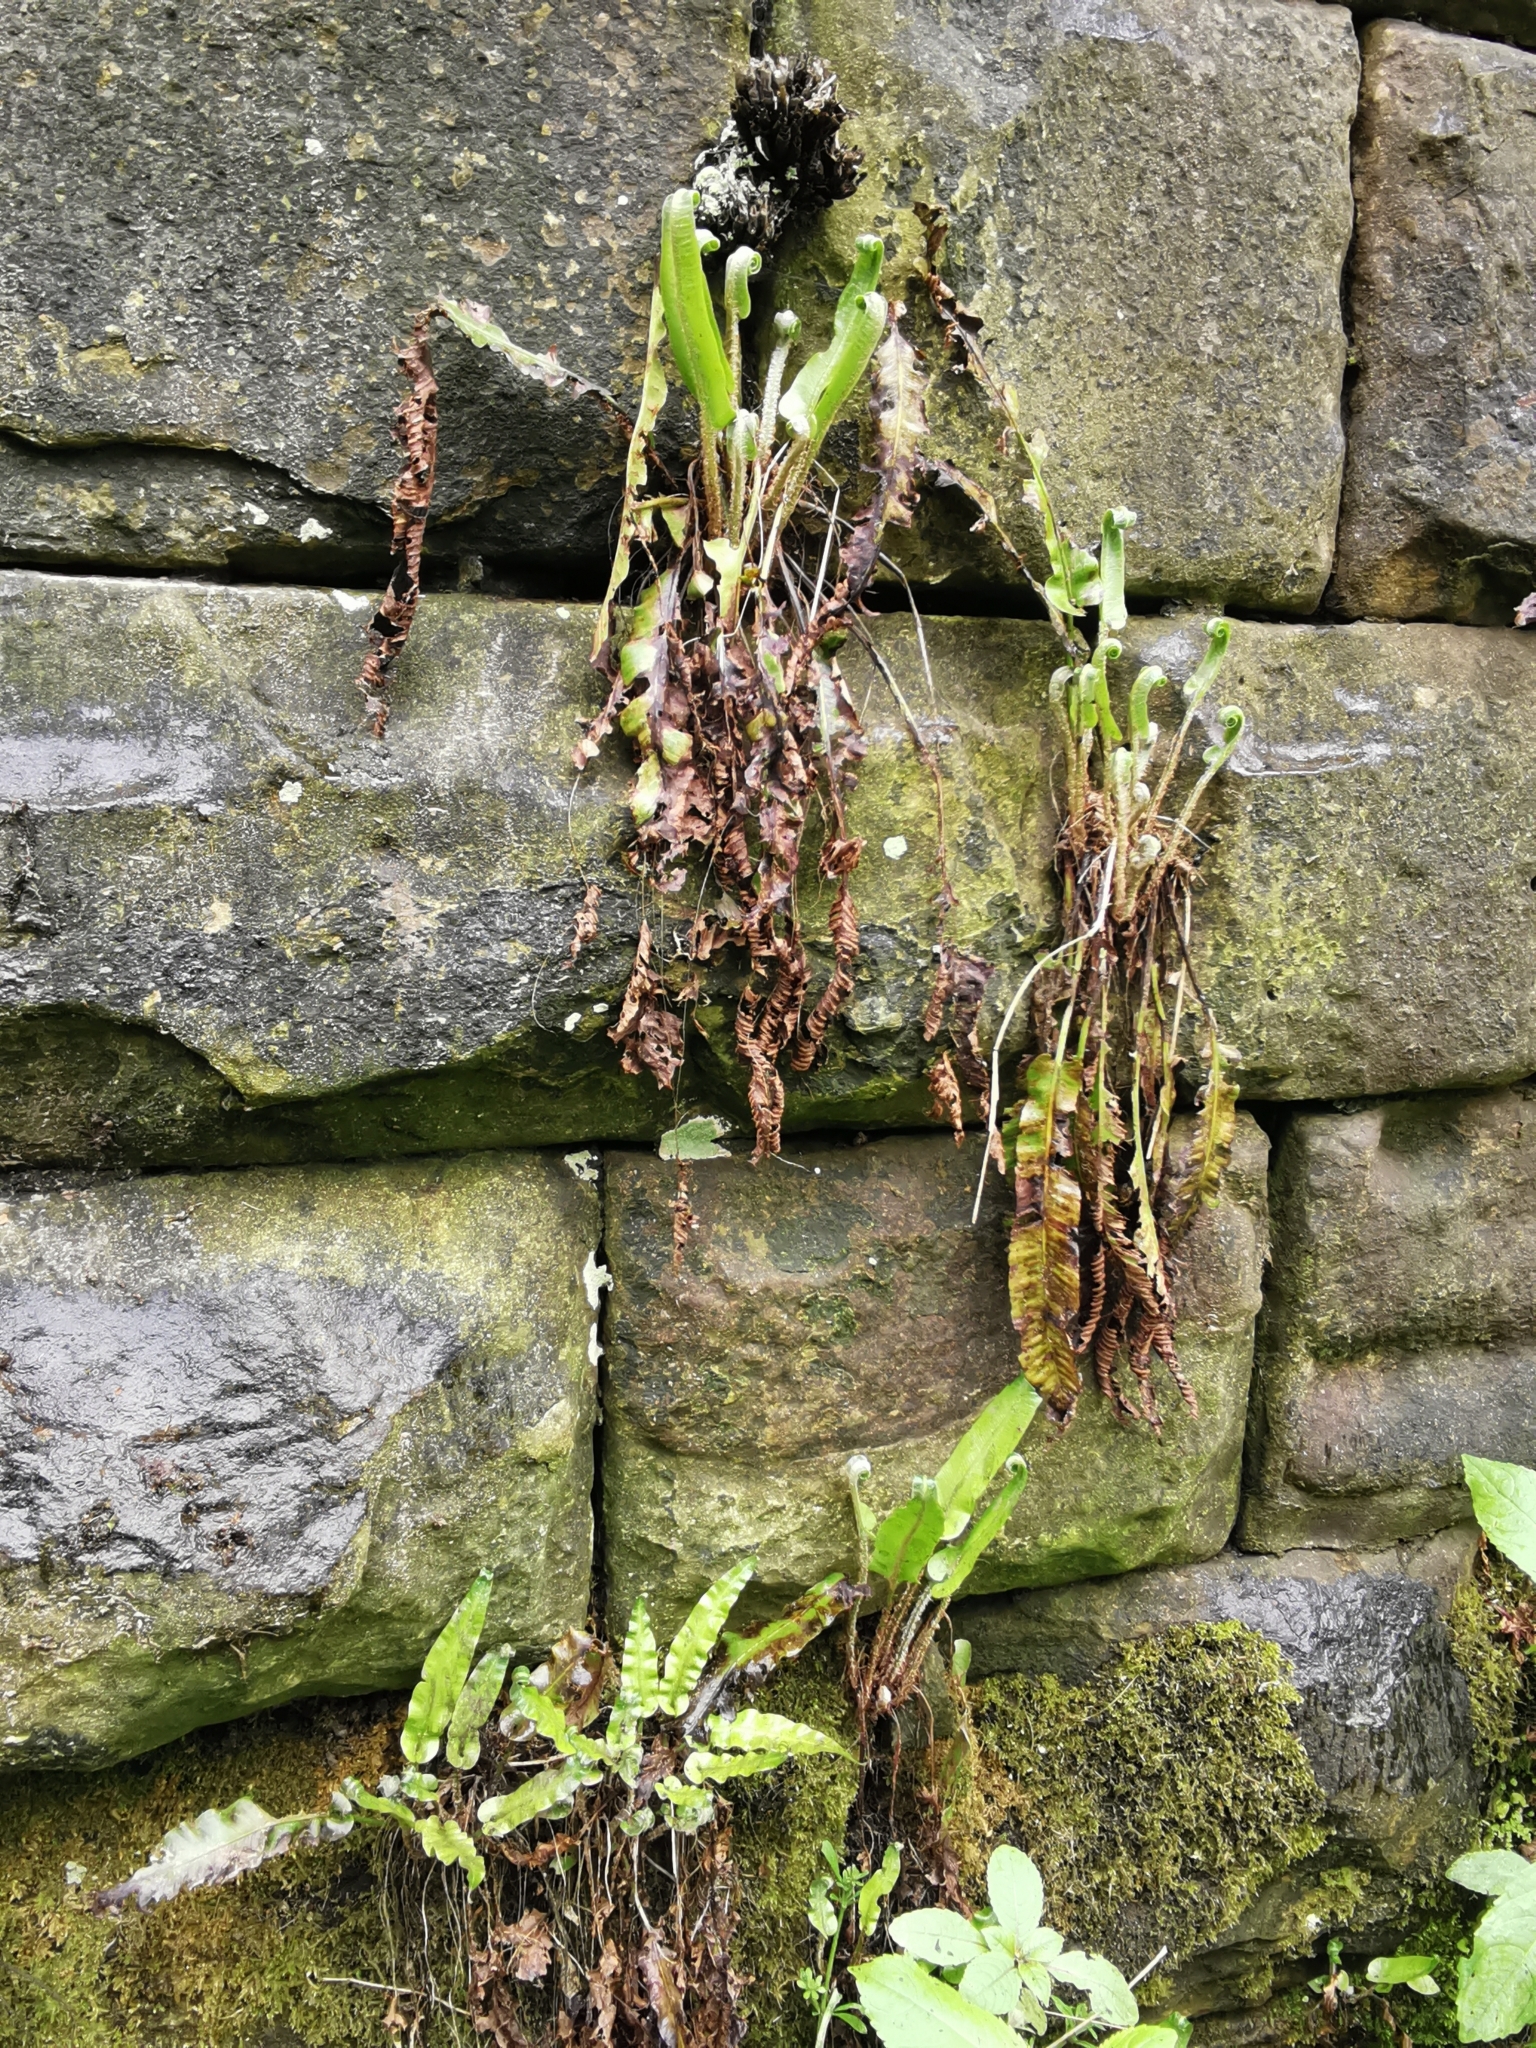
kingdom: Plantae
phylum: Tracheophyta
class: Polypodiopsida
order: Polypodiales
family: Aspleniaceae
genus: Asplenium
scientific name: Asplenium scolopendrium
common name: Hart's-tongue fern
